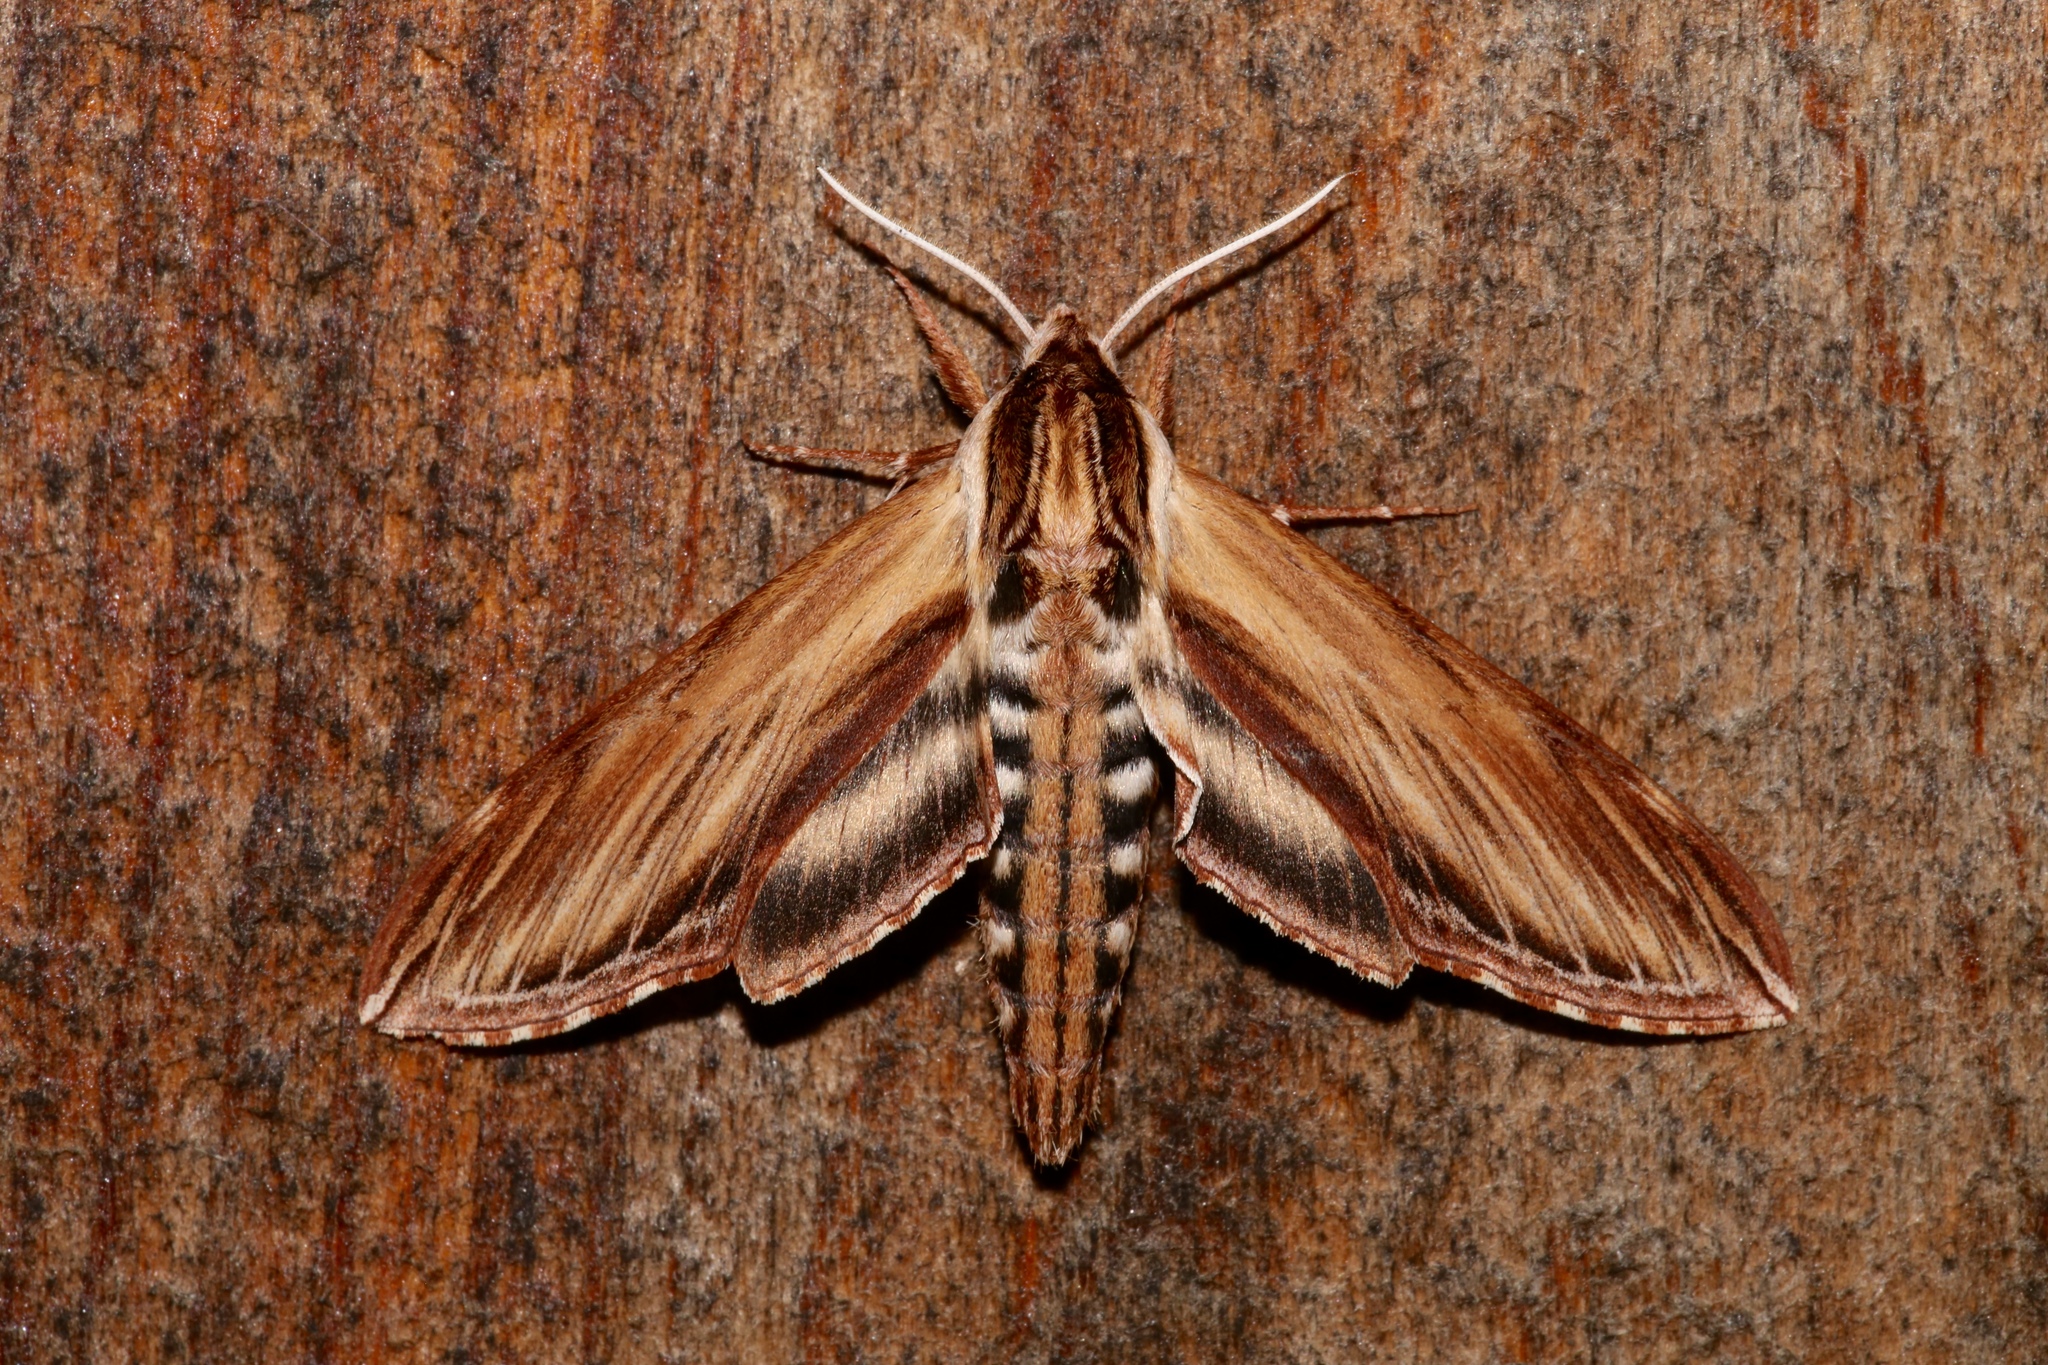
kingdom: Animalia
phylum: Arthropoda
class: Insecta
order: Lepidoptera
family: Sphingidae
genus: Sphinx
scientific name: Sphinx kalmiae
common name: Laurel sphinx
